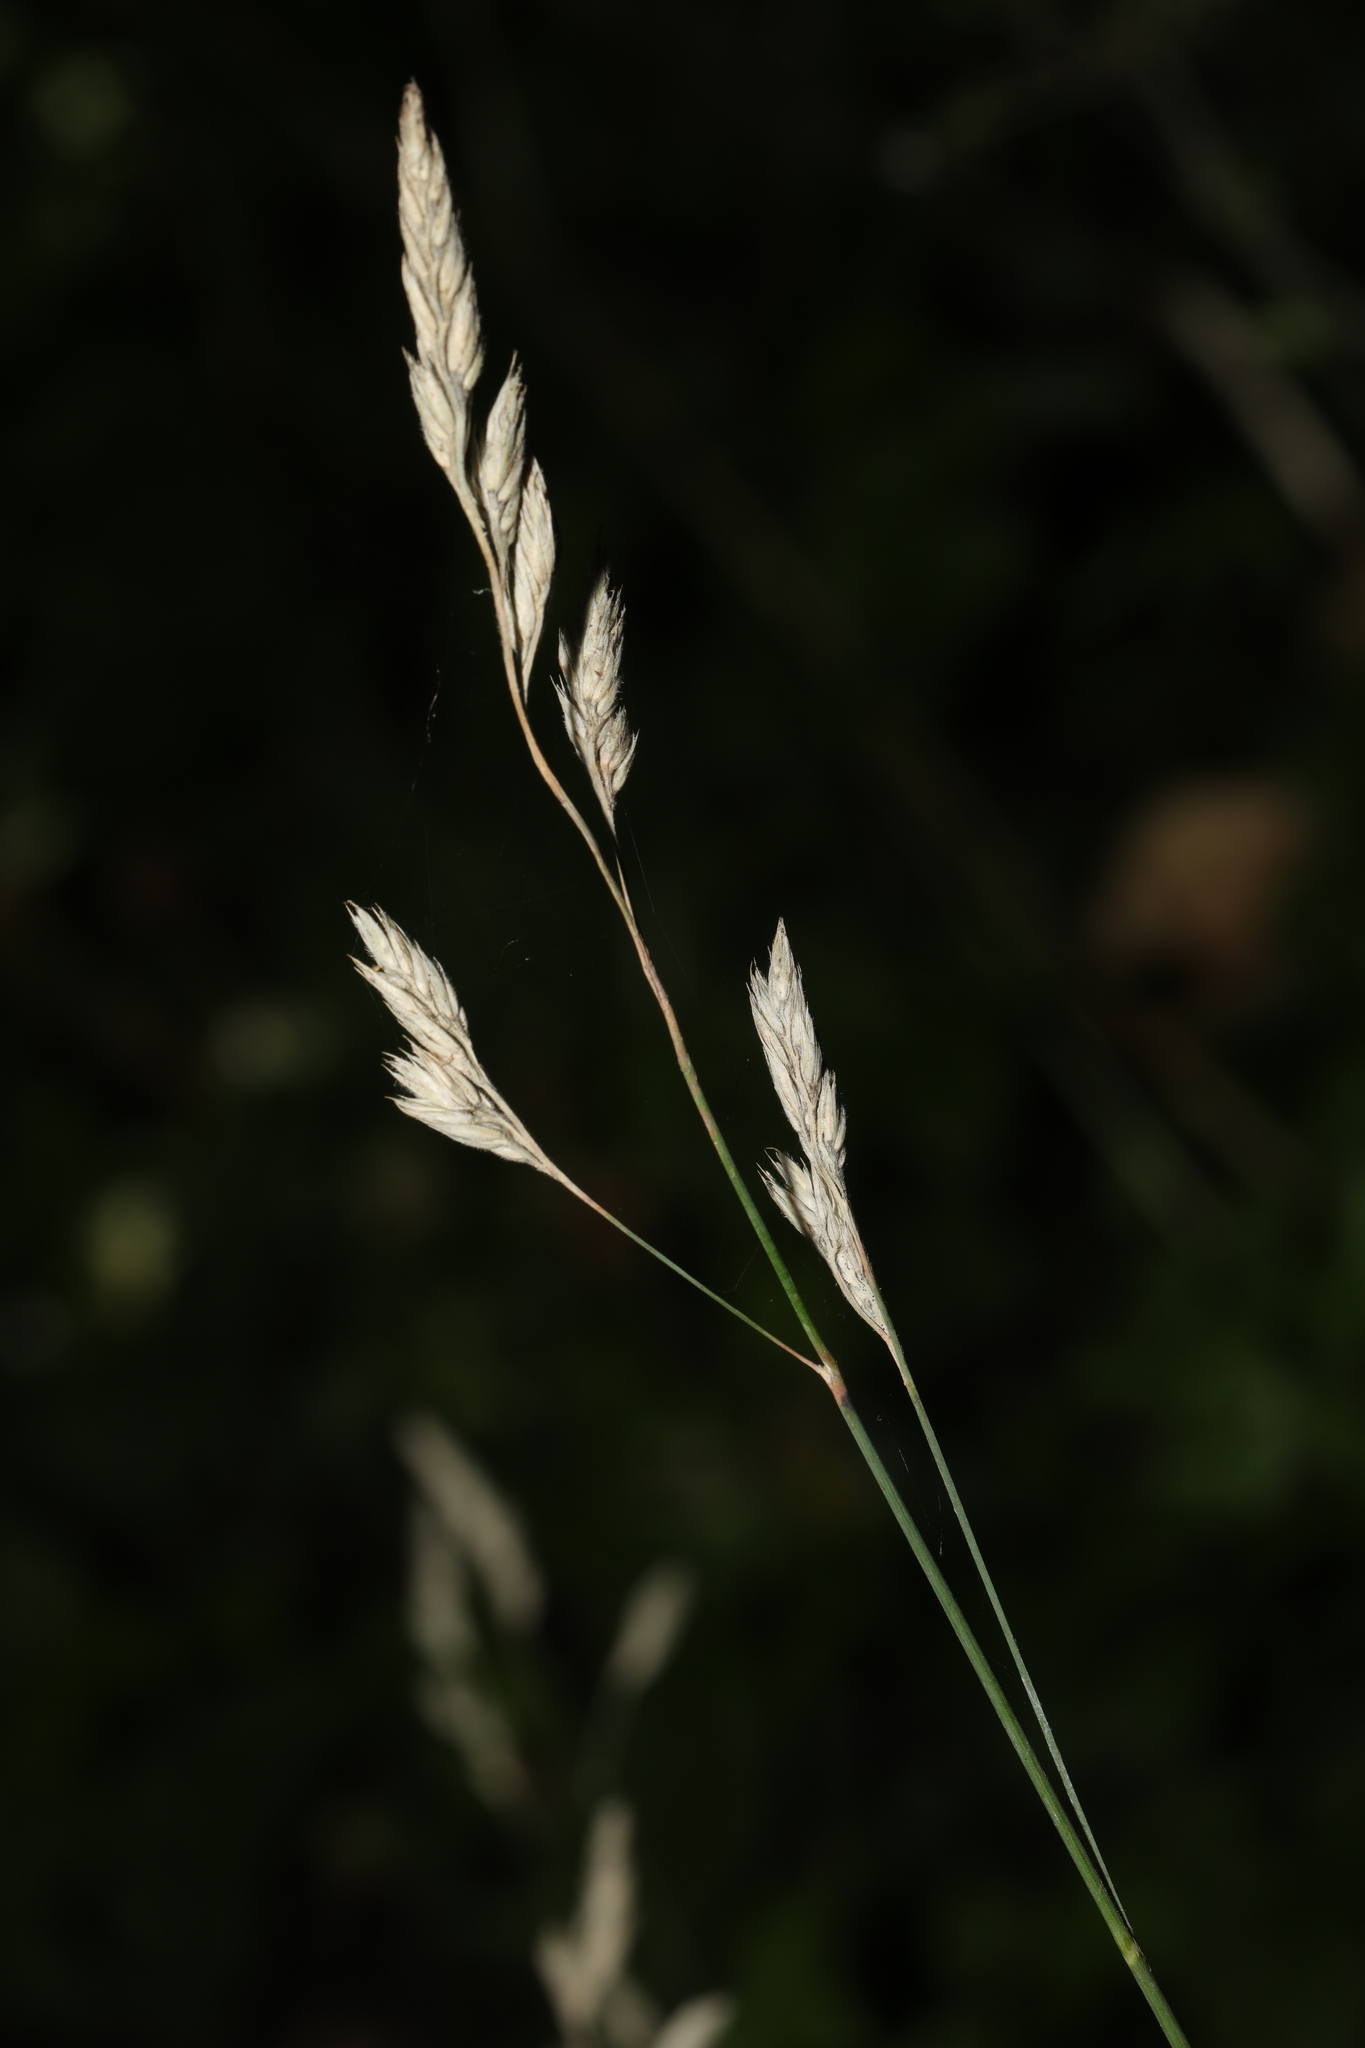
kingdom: Plantae
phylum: Tracheophyta
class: Liliopsida
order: Poales
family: Poaceae
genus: Dactylis
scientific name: Dactylis glomerata
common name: Orchardgrass
